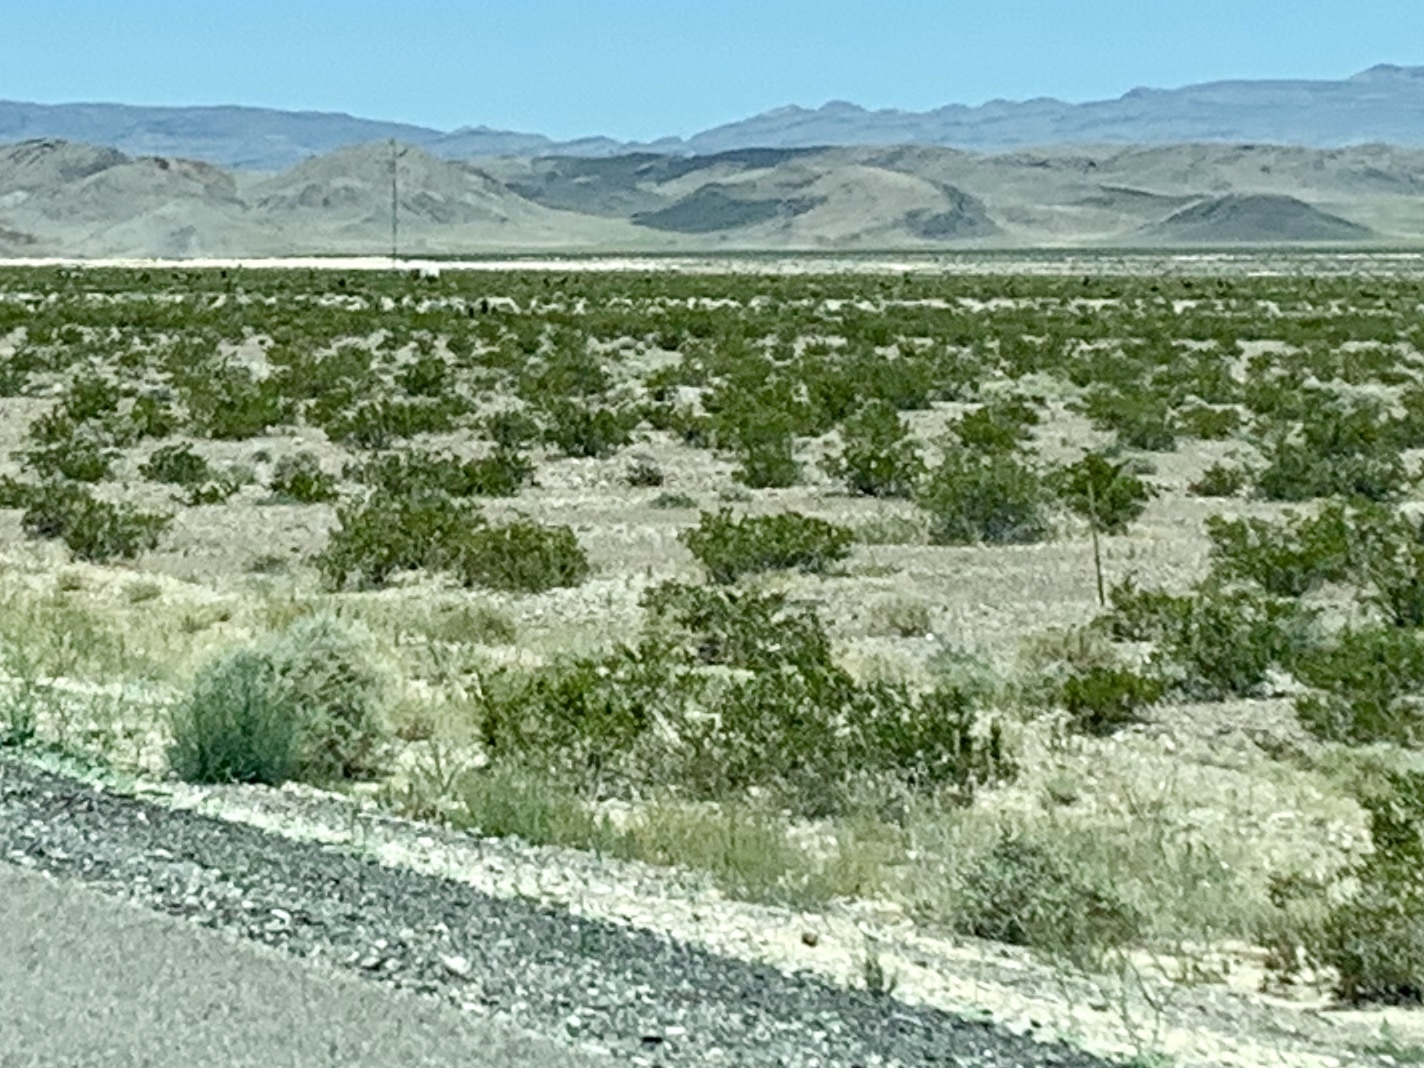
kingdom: Plantae
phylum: Tracheophyta
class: Magnoliopsida
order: Zygophyllales
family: Zygophyllaceae
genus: Larrea
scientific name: Larrea tridentata
